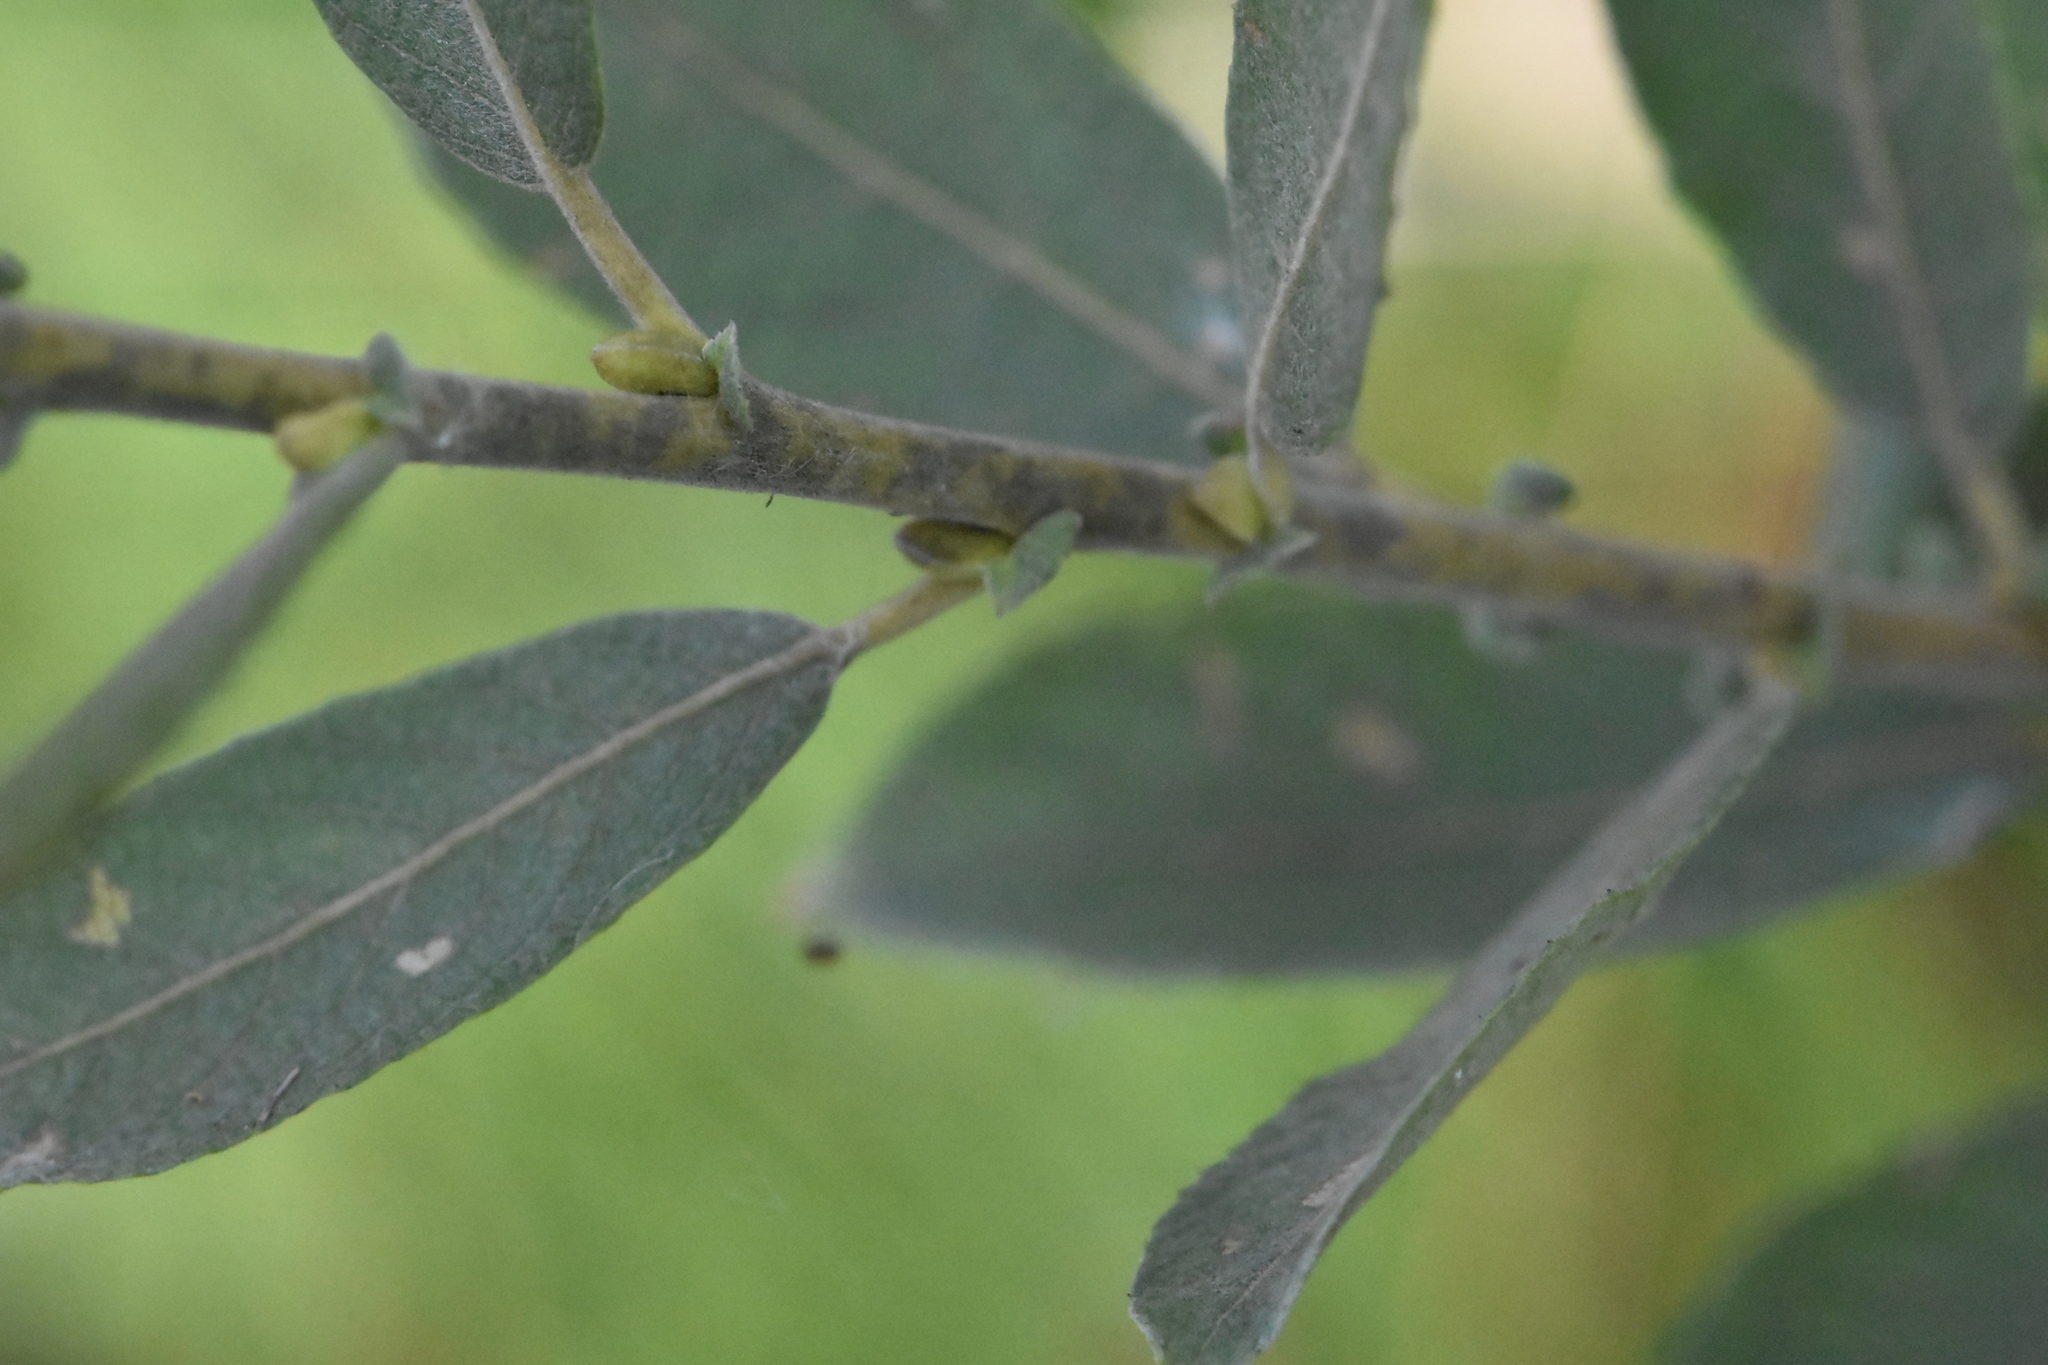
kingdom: Plantae
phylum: Tracheophyta
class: Magnoliopsida
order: Malpighiales
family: Salicaceae
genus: Salix
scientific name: Salix cinerea
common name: Common sallow
